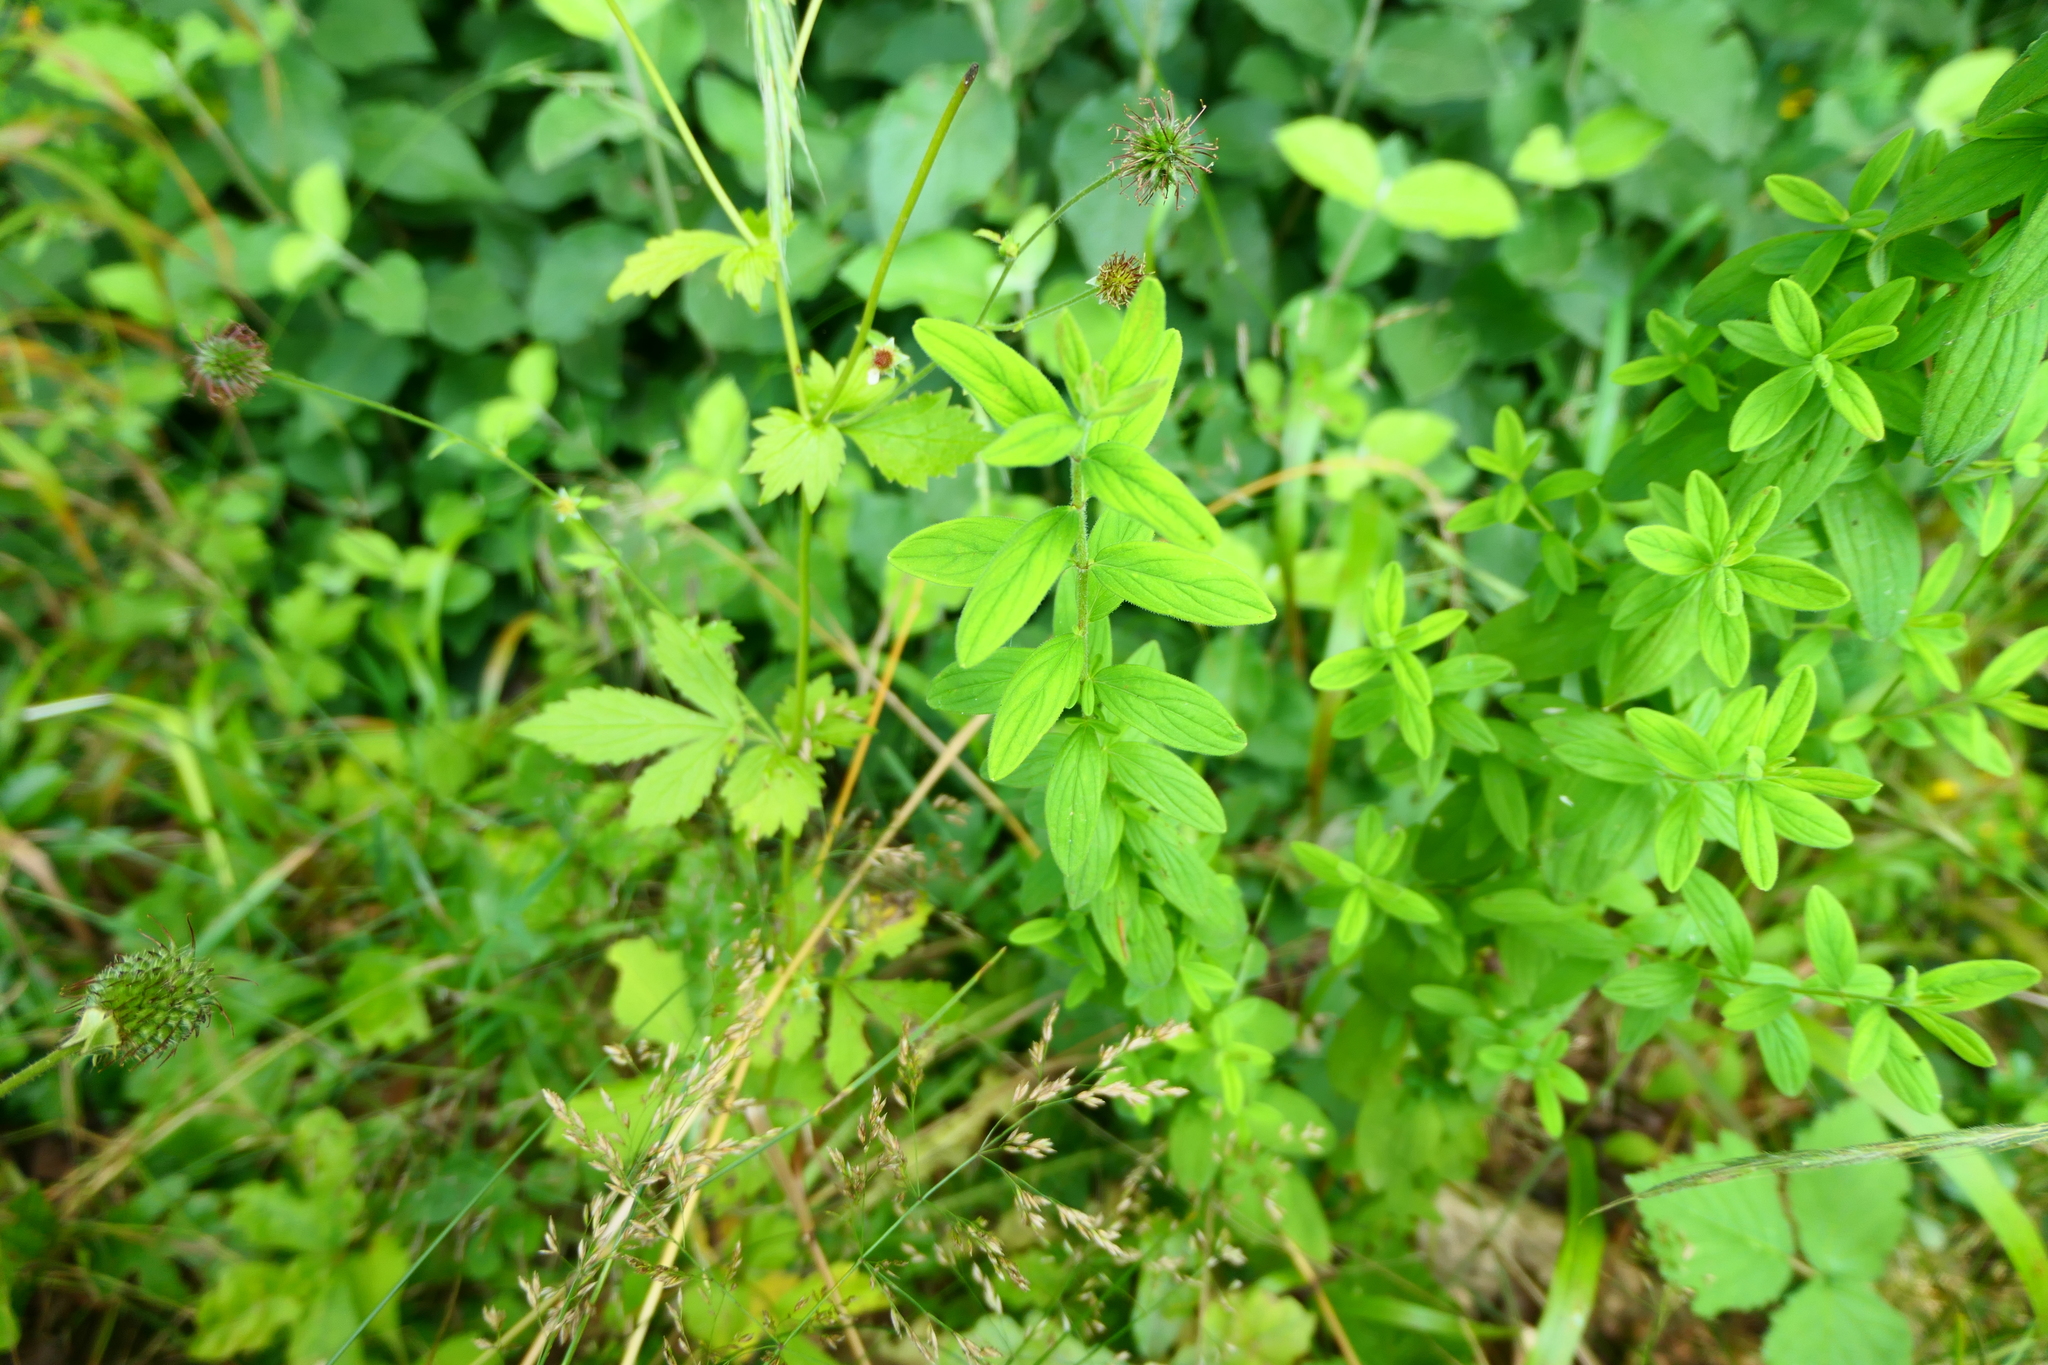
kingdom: Plantae
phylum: Tracheophyta
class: Magnoliopsida
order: Malpighiales
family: Hypericaceae
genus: Hypericum
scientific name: Hypericum hirsutum
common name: Hairy st. john's-wort
